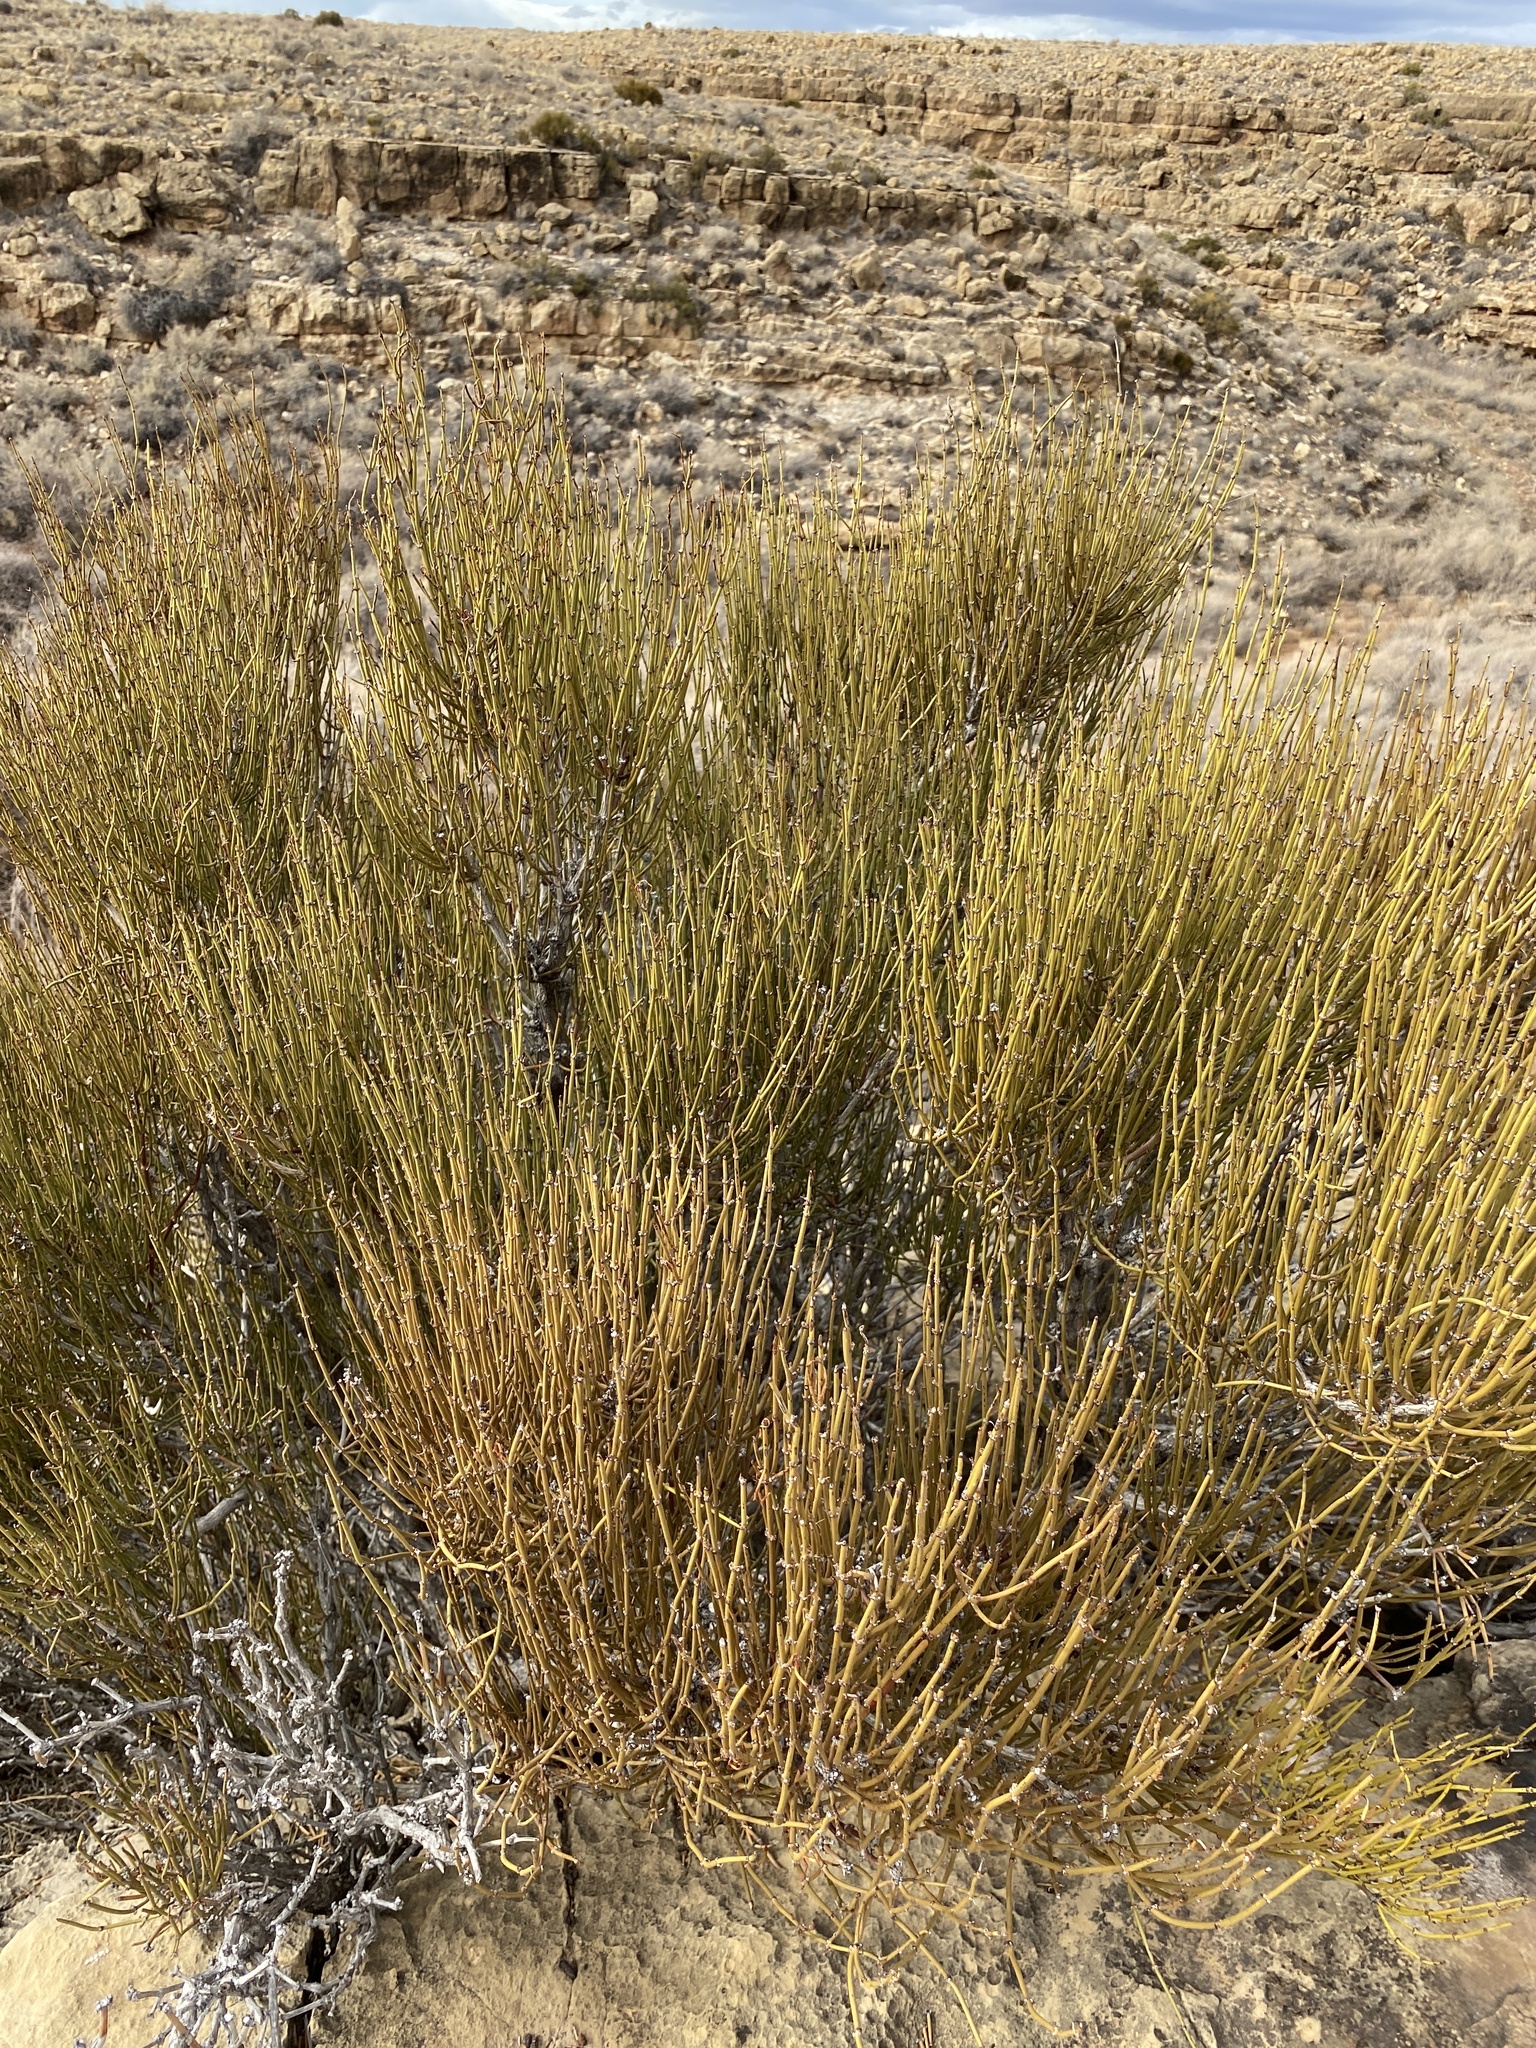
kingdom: Plantae
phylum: Tracheophyta
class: Gnetopsida
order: Ephedrales
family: Ephedraceae
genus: Ephedra
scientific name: Ephedra viridis
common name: Green ephedra
